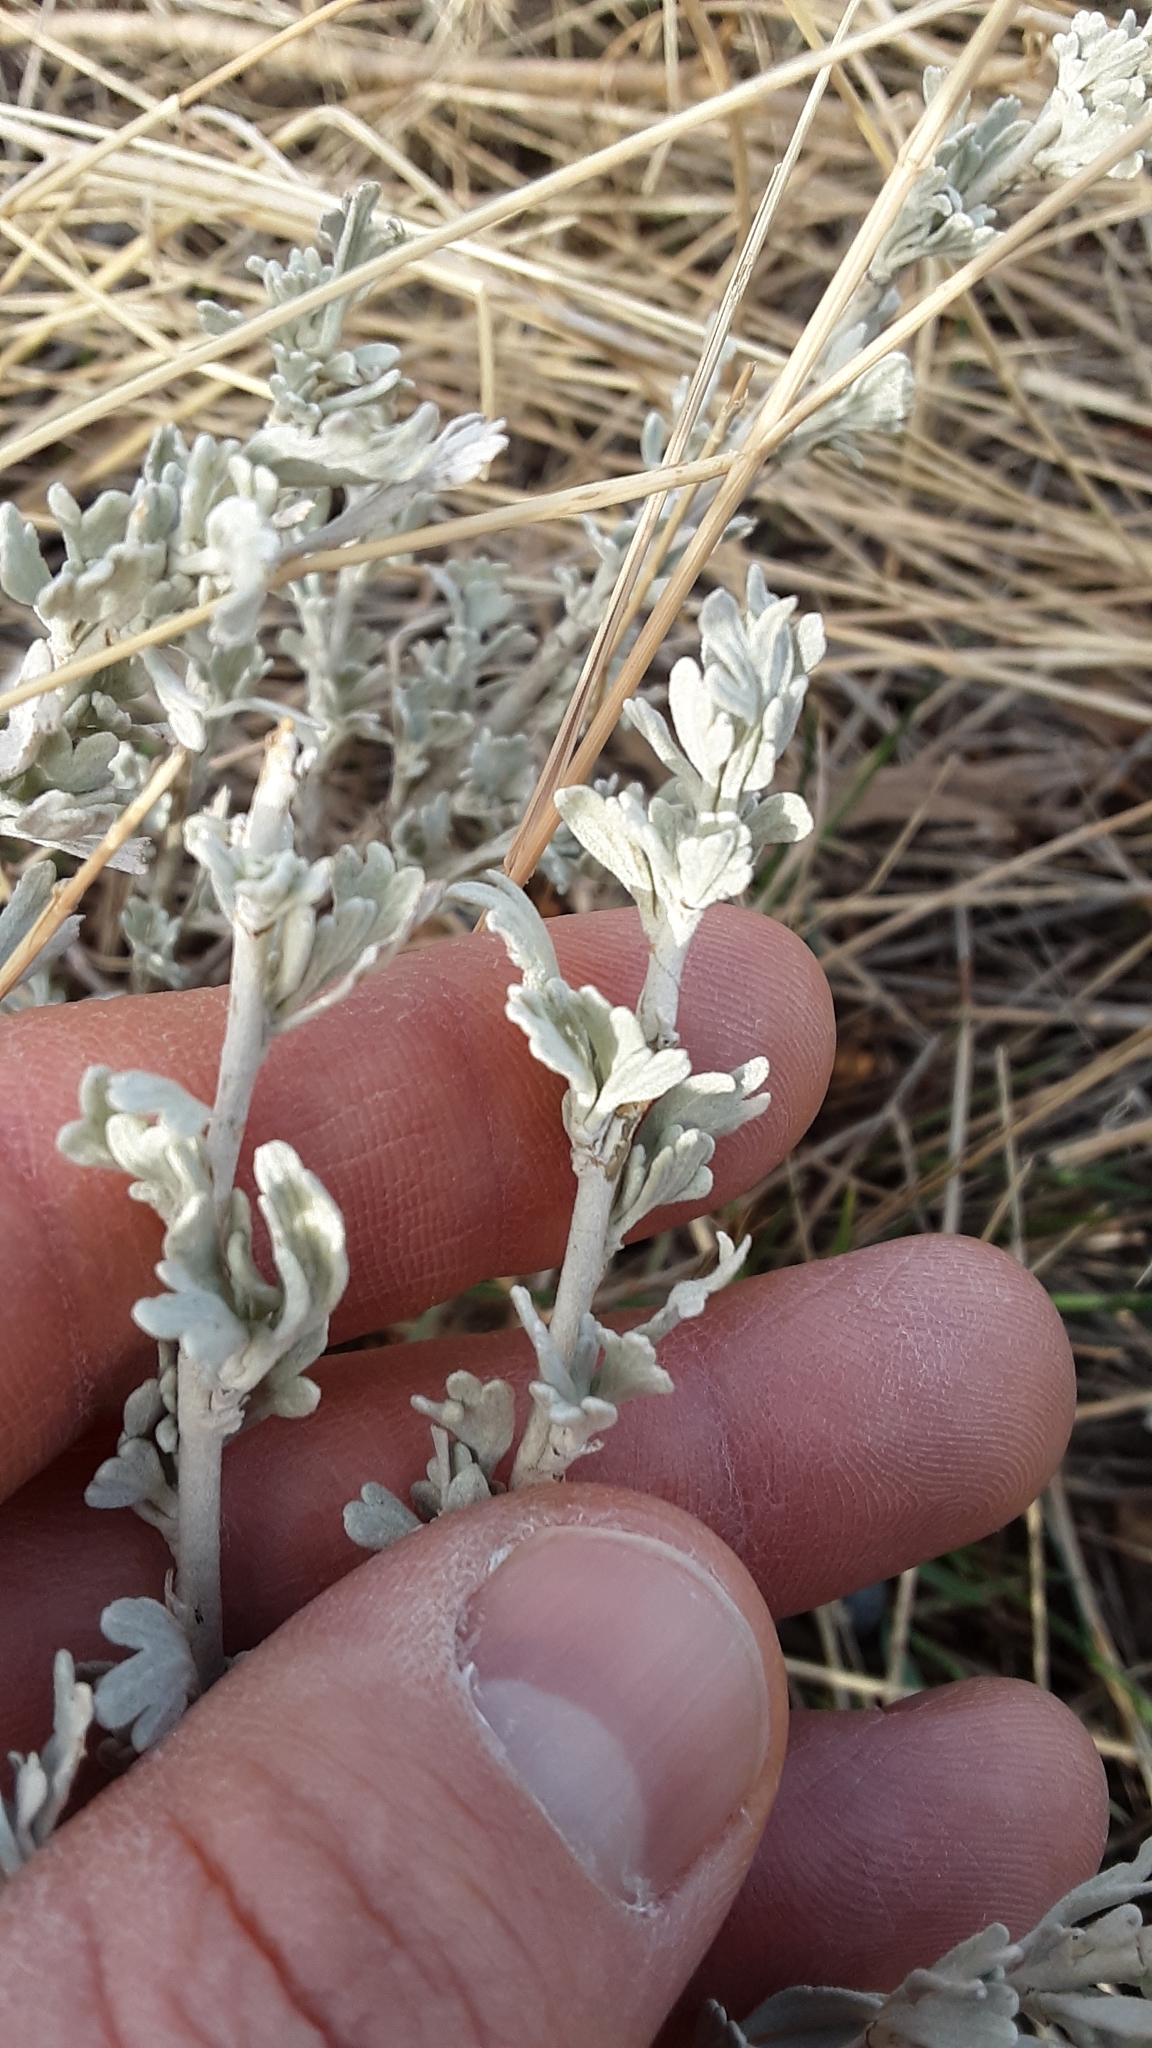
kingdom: Plantae
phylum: Tracheophyta
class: Magnoliopsida
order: Asterales
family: Asteraceae
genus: Artemisia
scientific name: Artemisia tridentata
